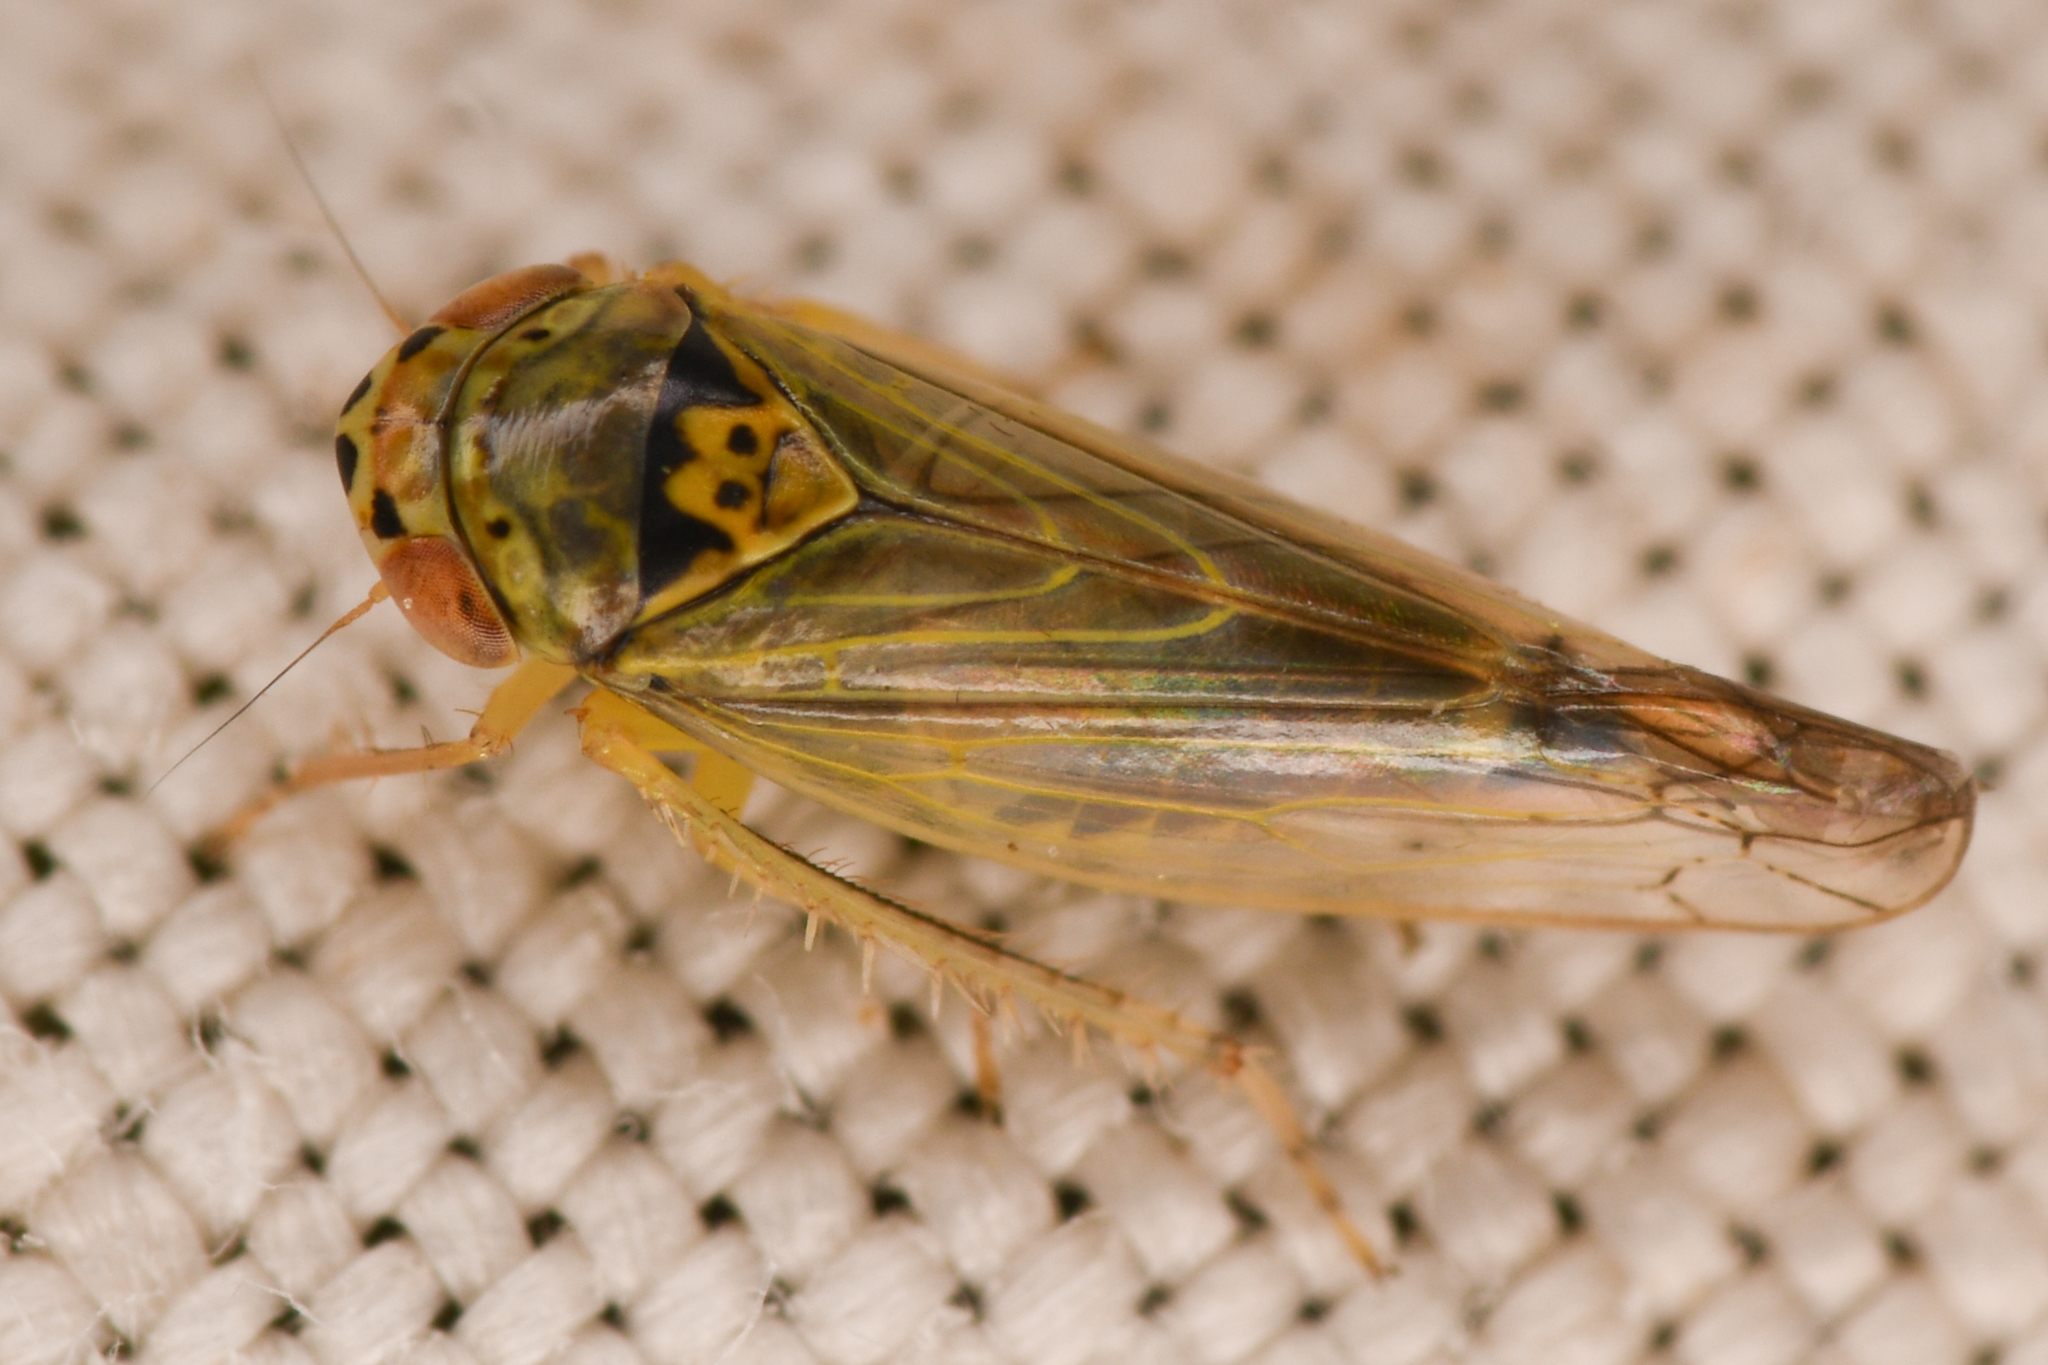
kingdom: Animalia
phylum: Arthropoda
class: Insecta
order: Hemiptera
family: Cicadellidae
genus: Colladonus
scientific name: Colladonus geminatus
